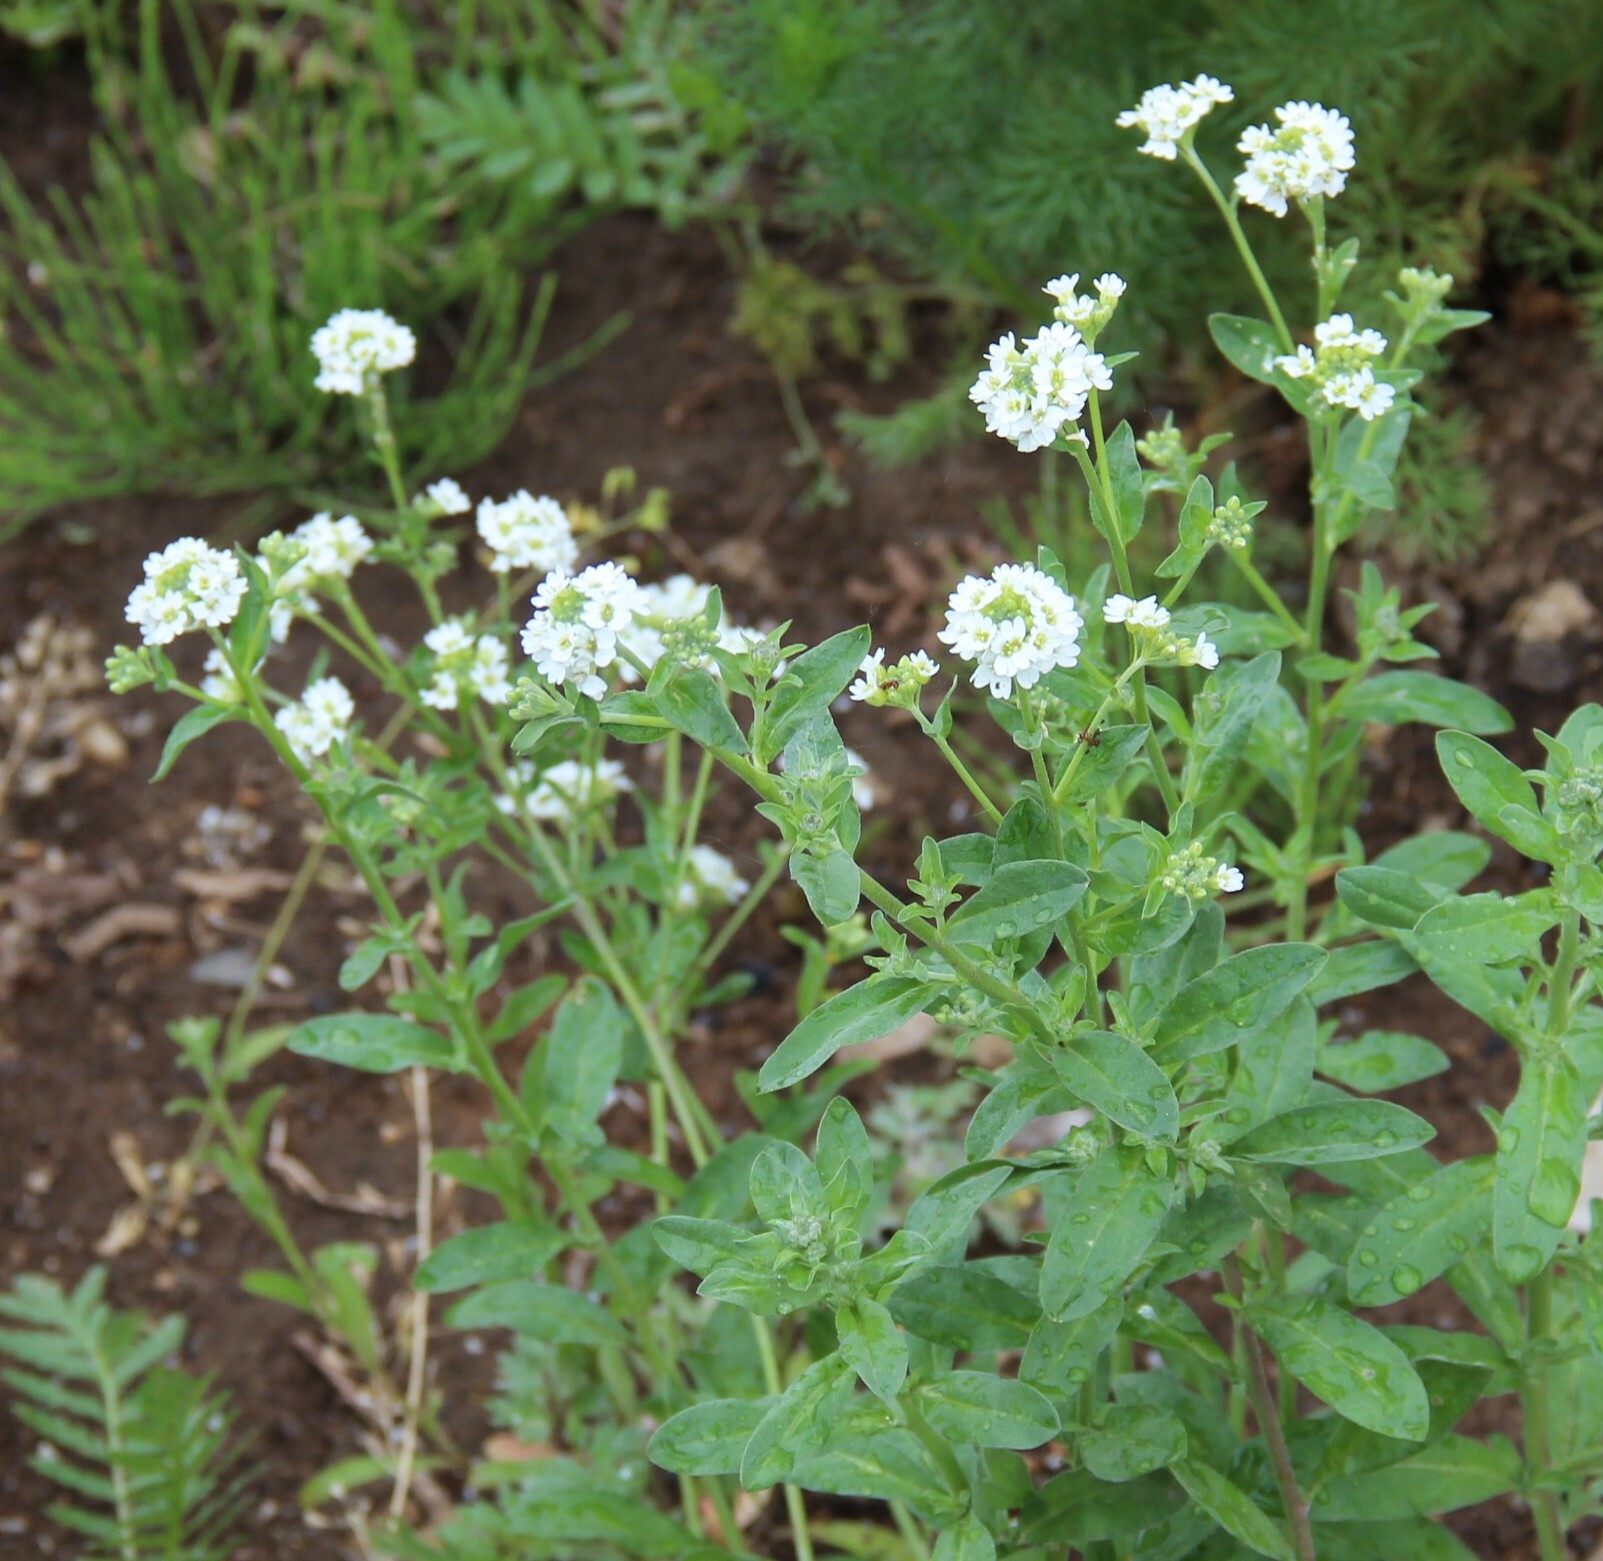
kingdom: Plantae
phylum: Tracheophyta
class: Magnoliopsida
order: Brassicales
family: Brassicaceae
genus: Berteroa
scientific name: Berteroa incana
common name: Hoary alison
